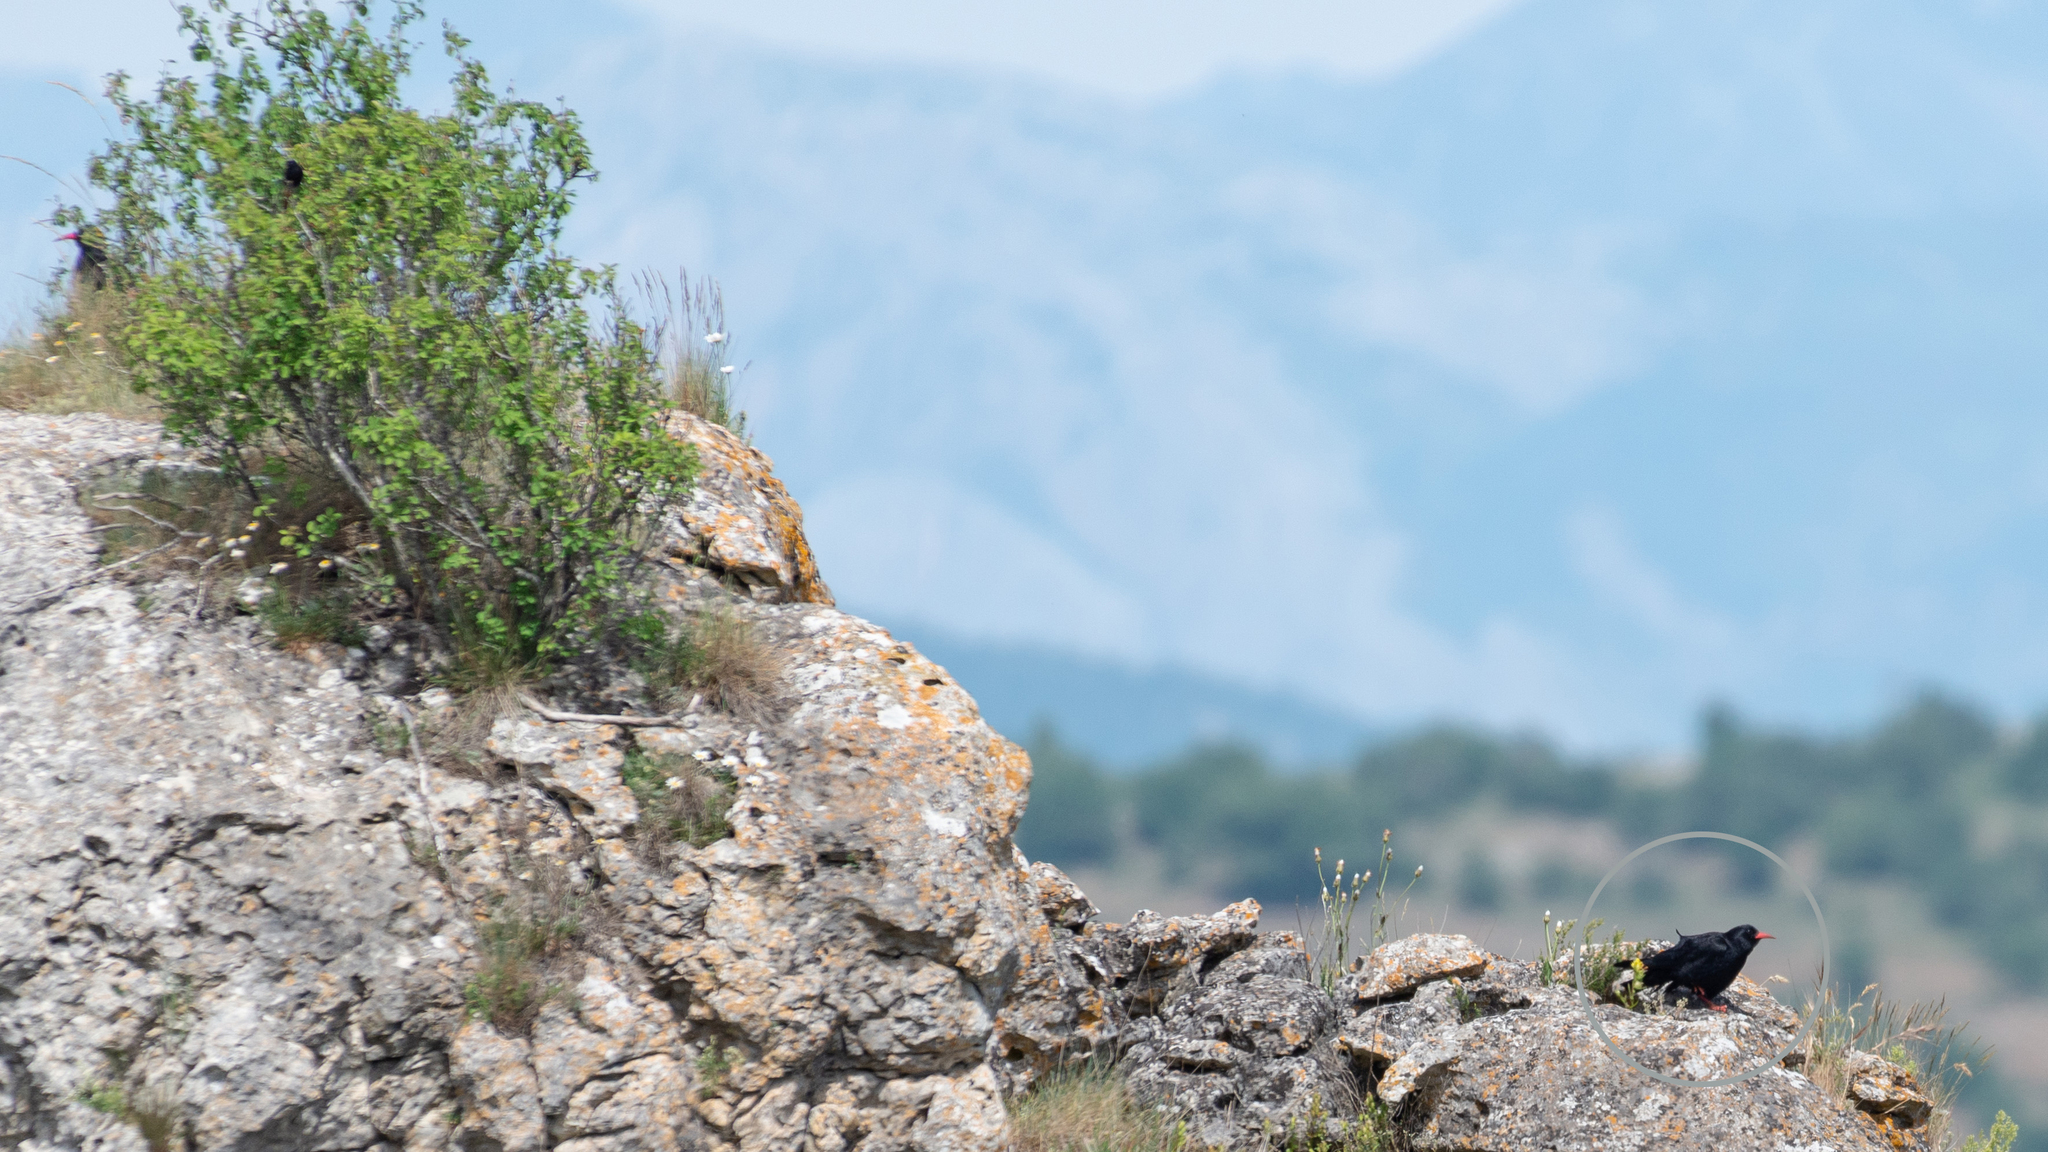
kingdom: Animalia
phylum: Chordata
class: Aves
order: Passeriformes
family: Corvidae
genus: Pyrrhocorax
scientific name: Pyrrhocorax pyrrhocorax
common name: Red-billed chough
